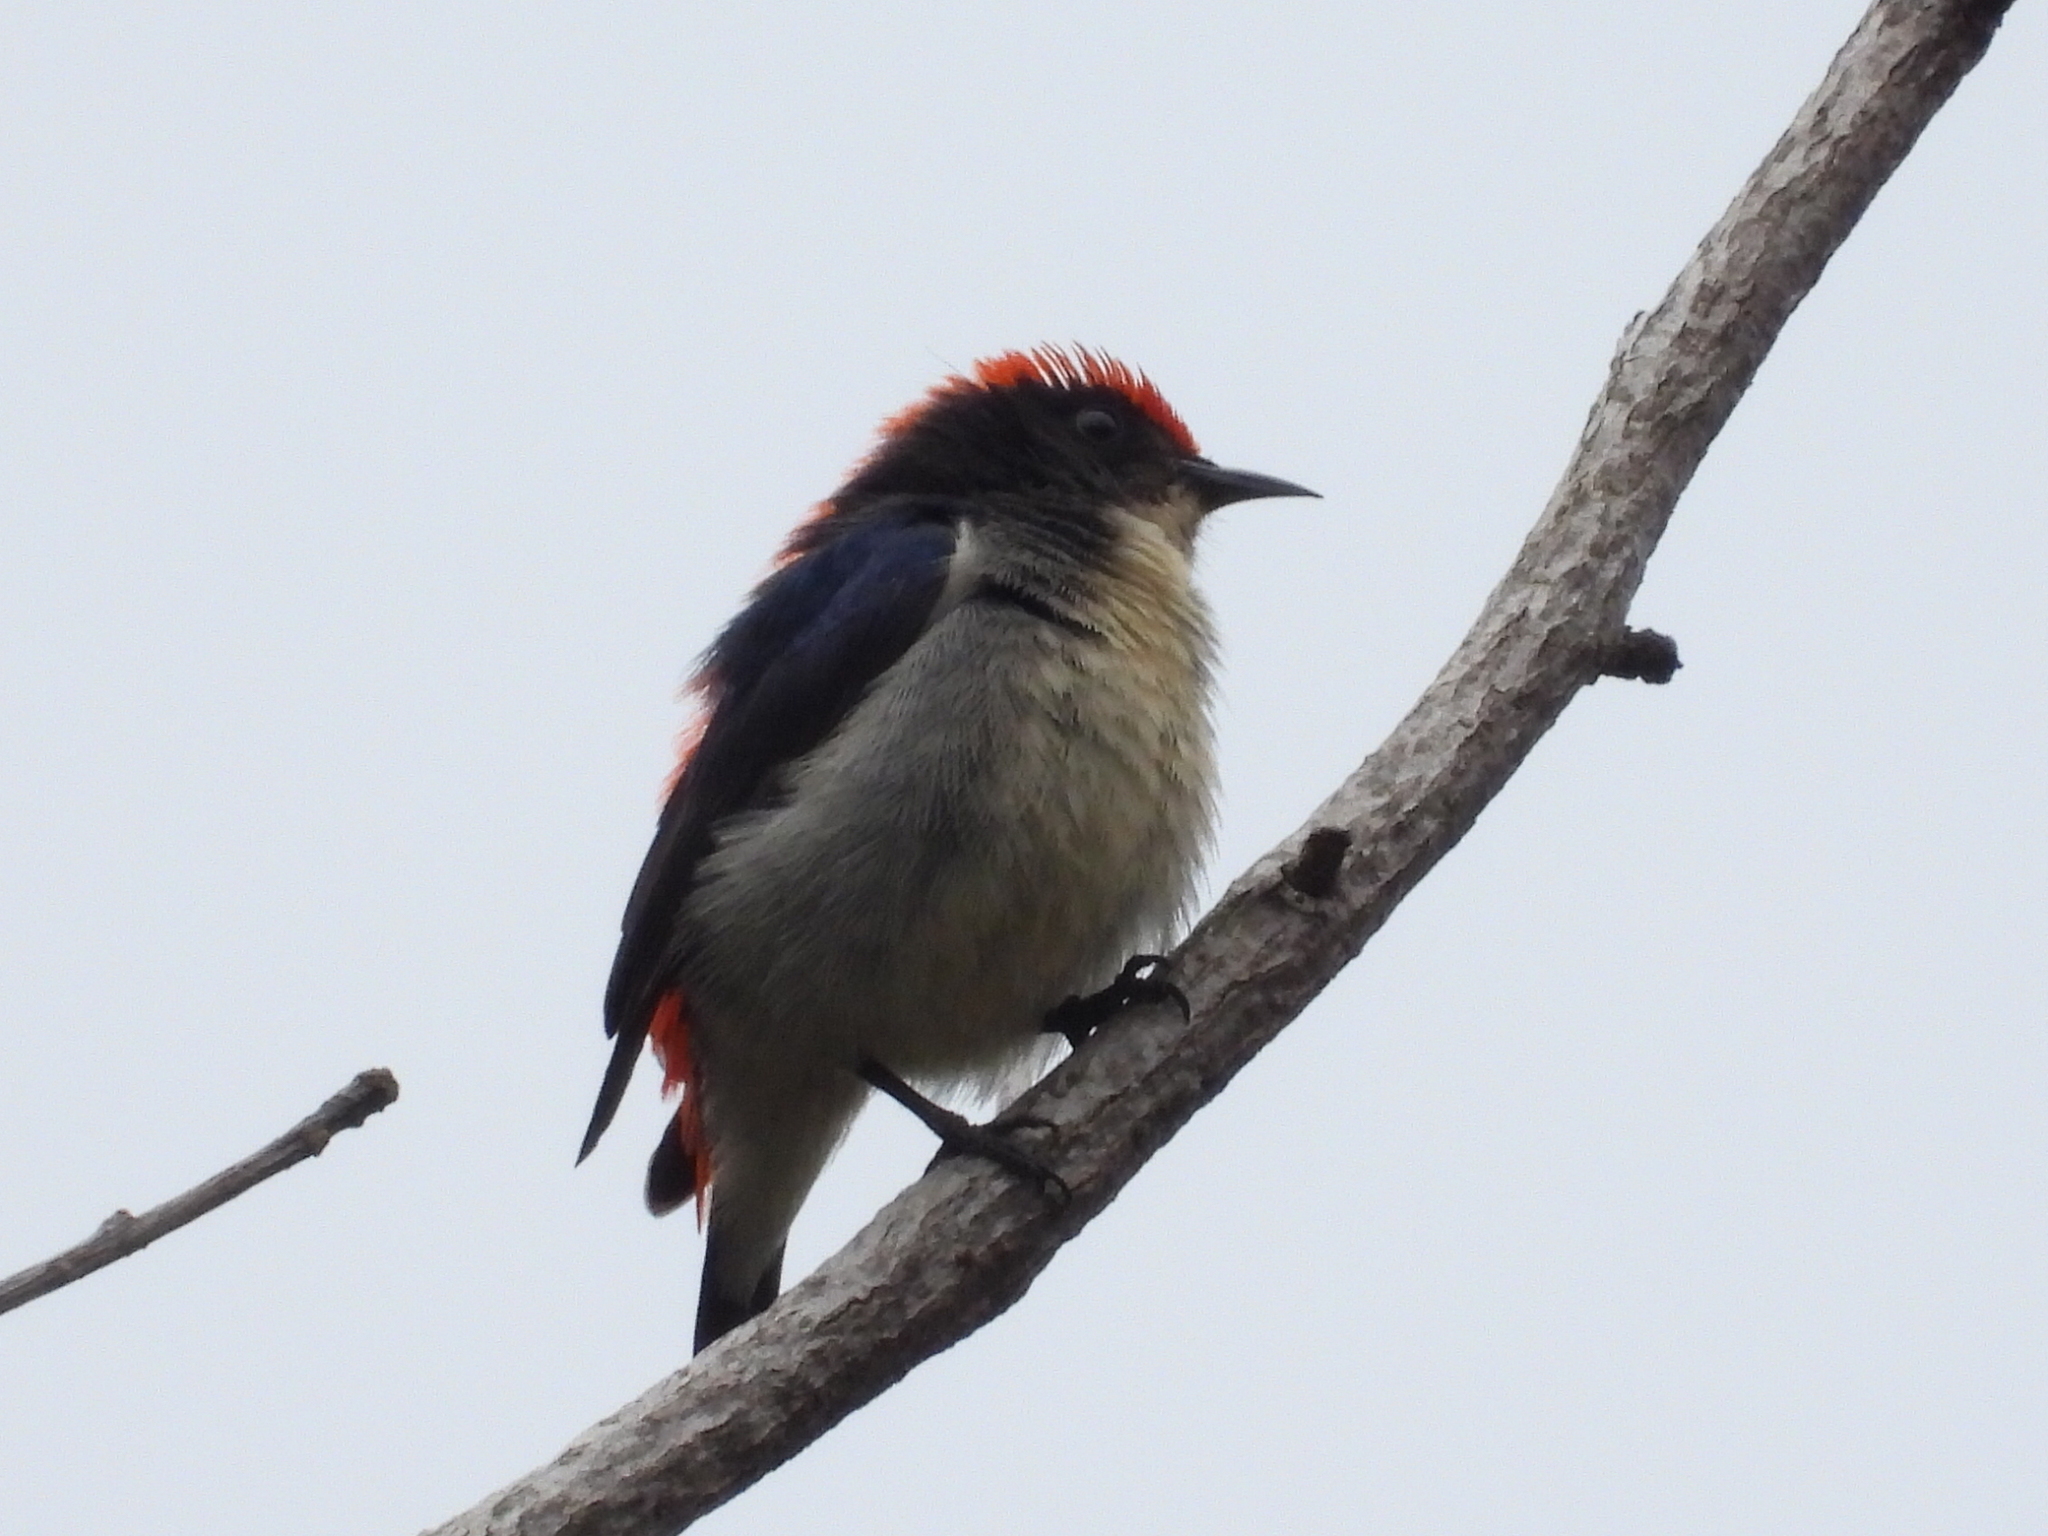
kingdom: Animalia
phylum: Chordata
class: Aves
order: Passeriformes
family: Dicaeidae
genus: Dicaeum
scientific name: Dicaeum cruentatum
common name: Scarlet-backed flowerpecker
